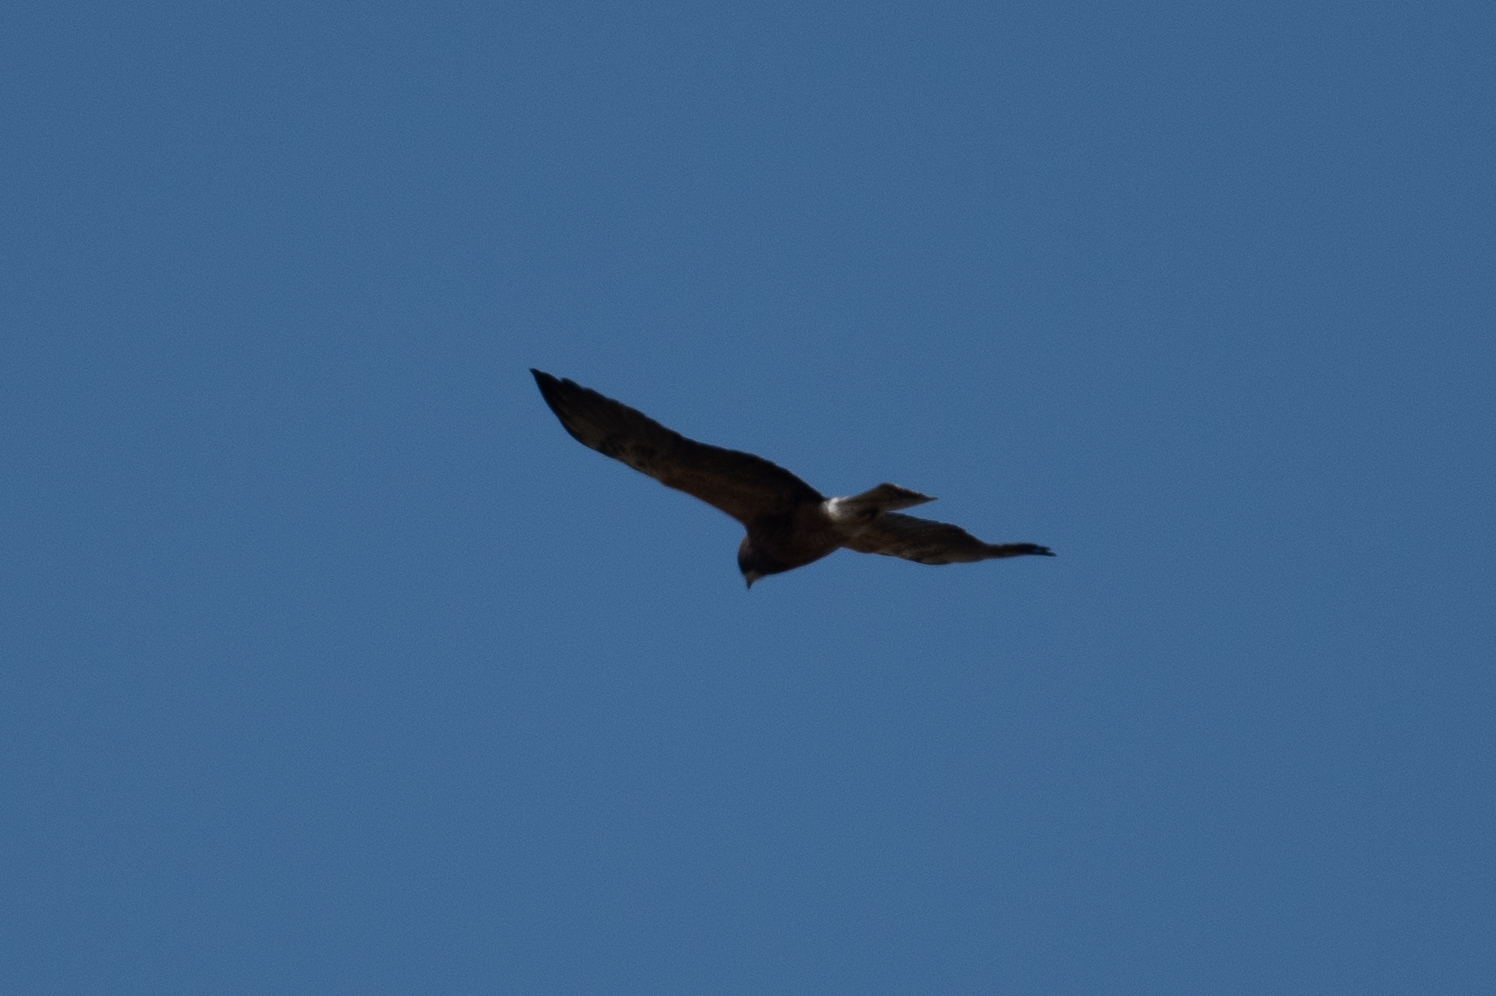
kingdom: Animalia
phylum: Chordata
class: Aves
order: Accipitriformes
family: Accipitridae
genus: Buteo
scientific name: Buteo swainsoni
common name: Swainson's hawk
